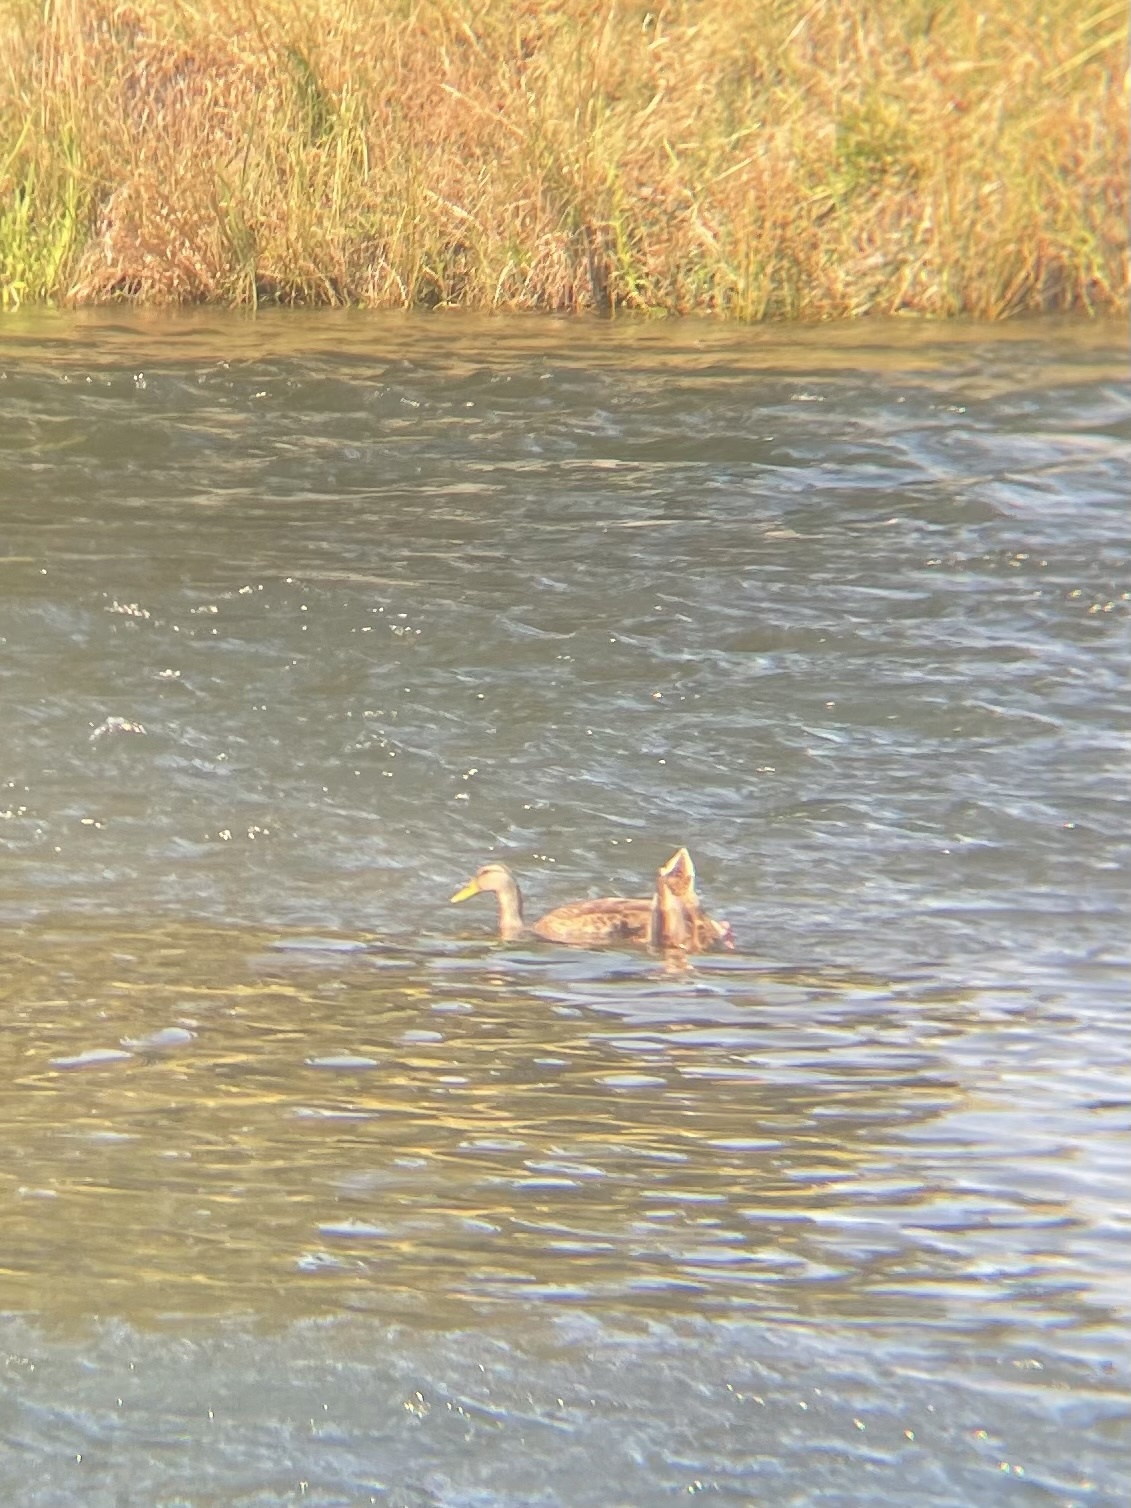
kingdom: Animalia
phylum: Chordata
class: Aves
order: Anseriformes
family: Anatidae
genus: Anas
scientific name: Anas platyrhynchos
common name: Mallard
